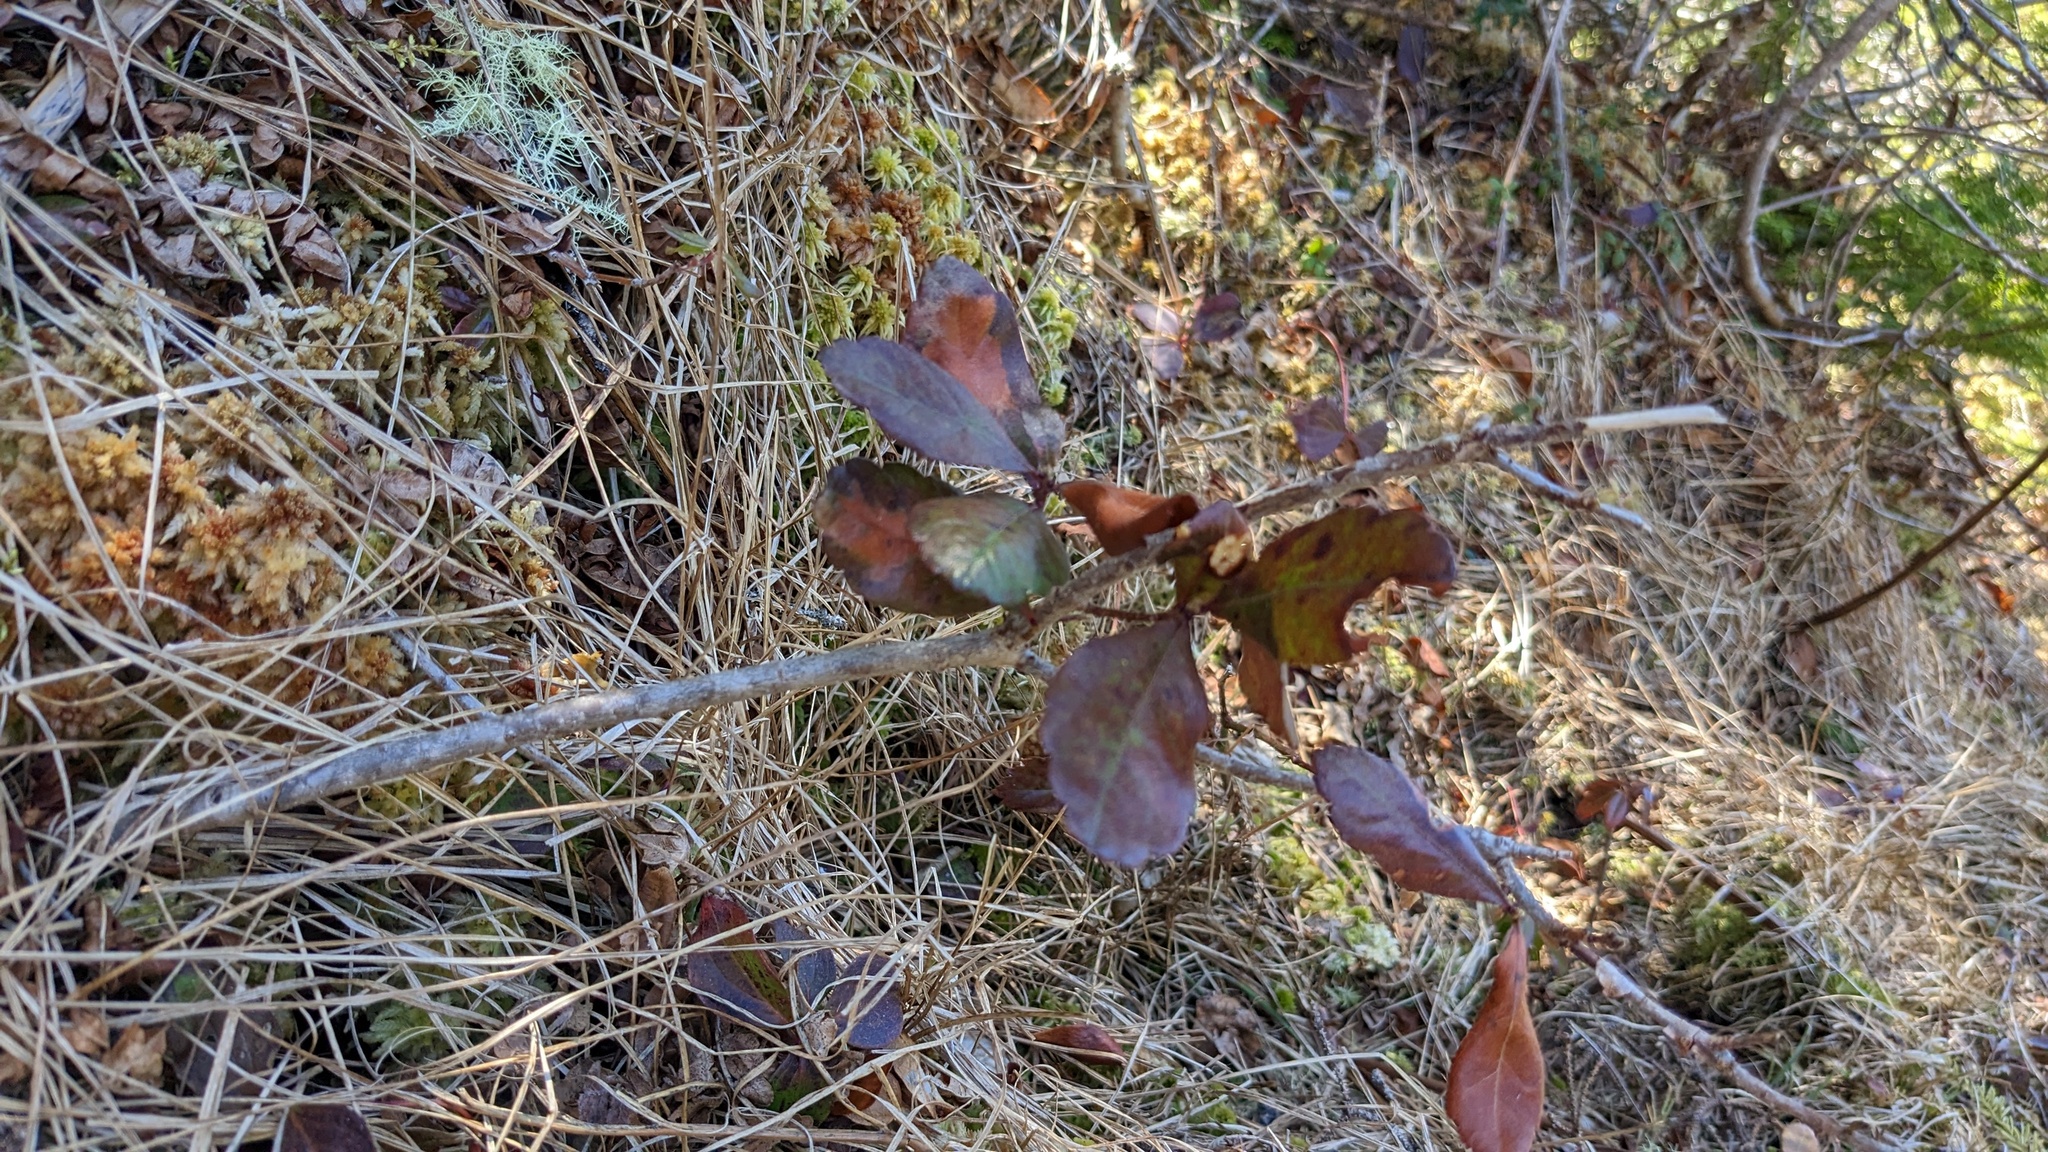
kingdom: Plantae
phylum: Tracheophyta
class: Magnoliopsida
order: Fagales
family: Myricaceae
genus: Morella
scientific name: Morella pensylvanica
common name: Northern bayberry
